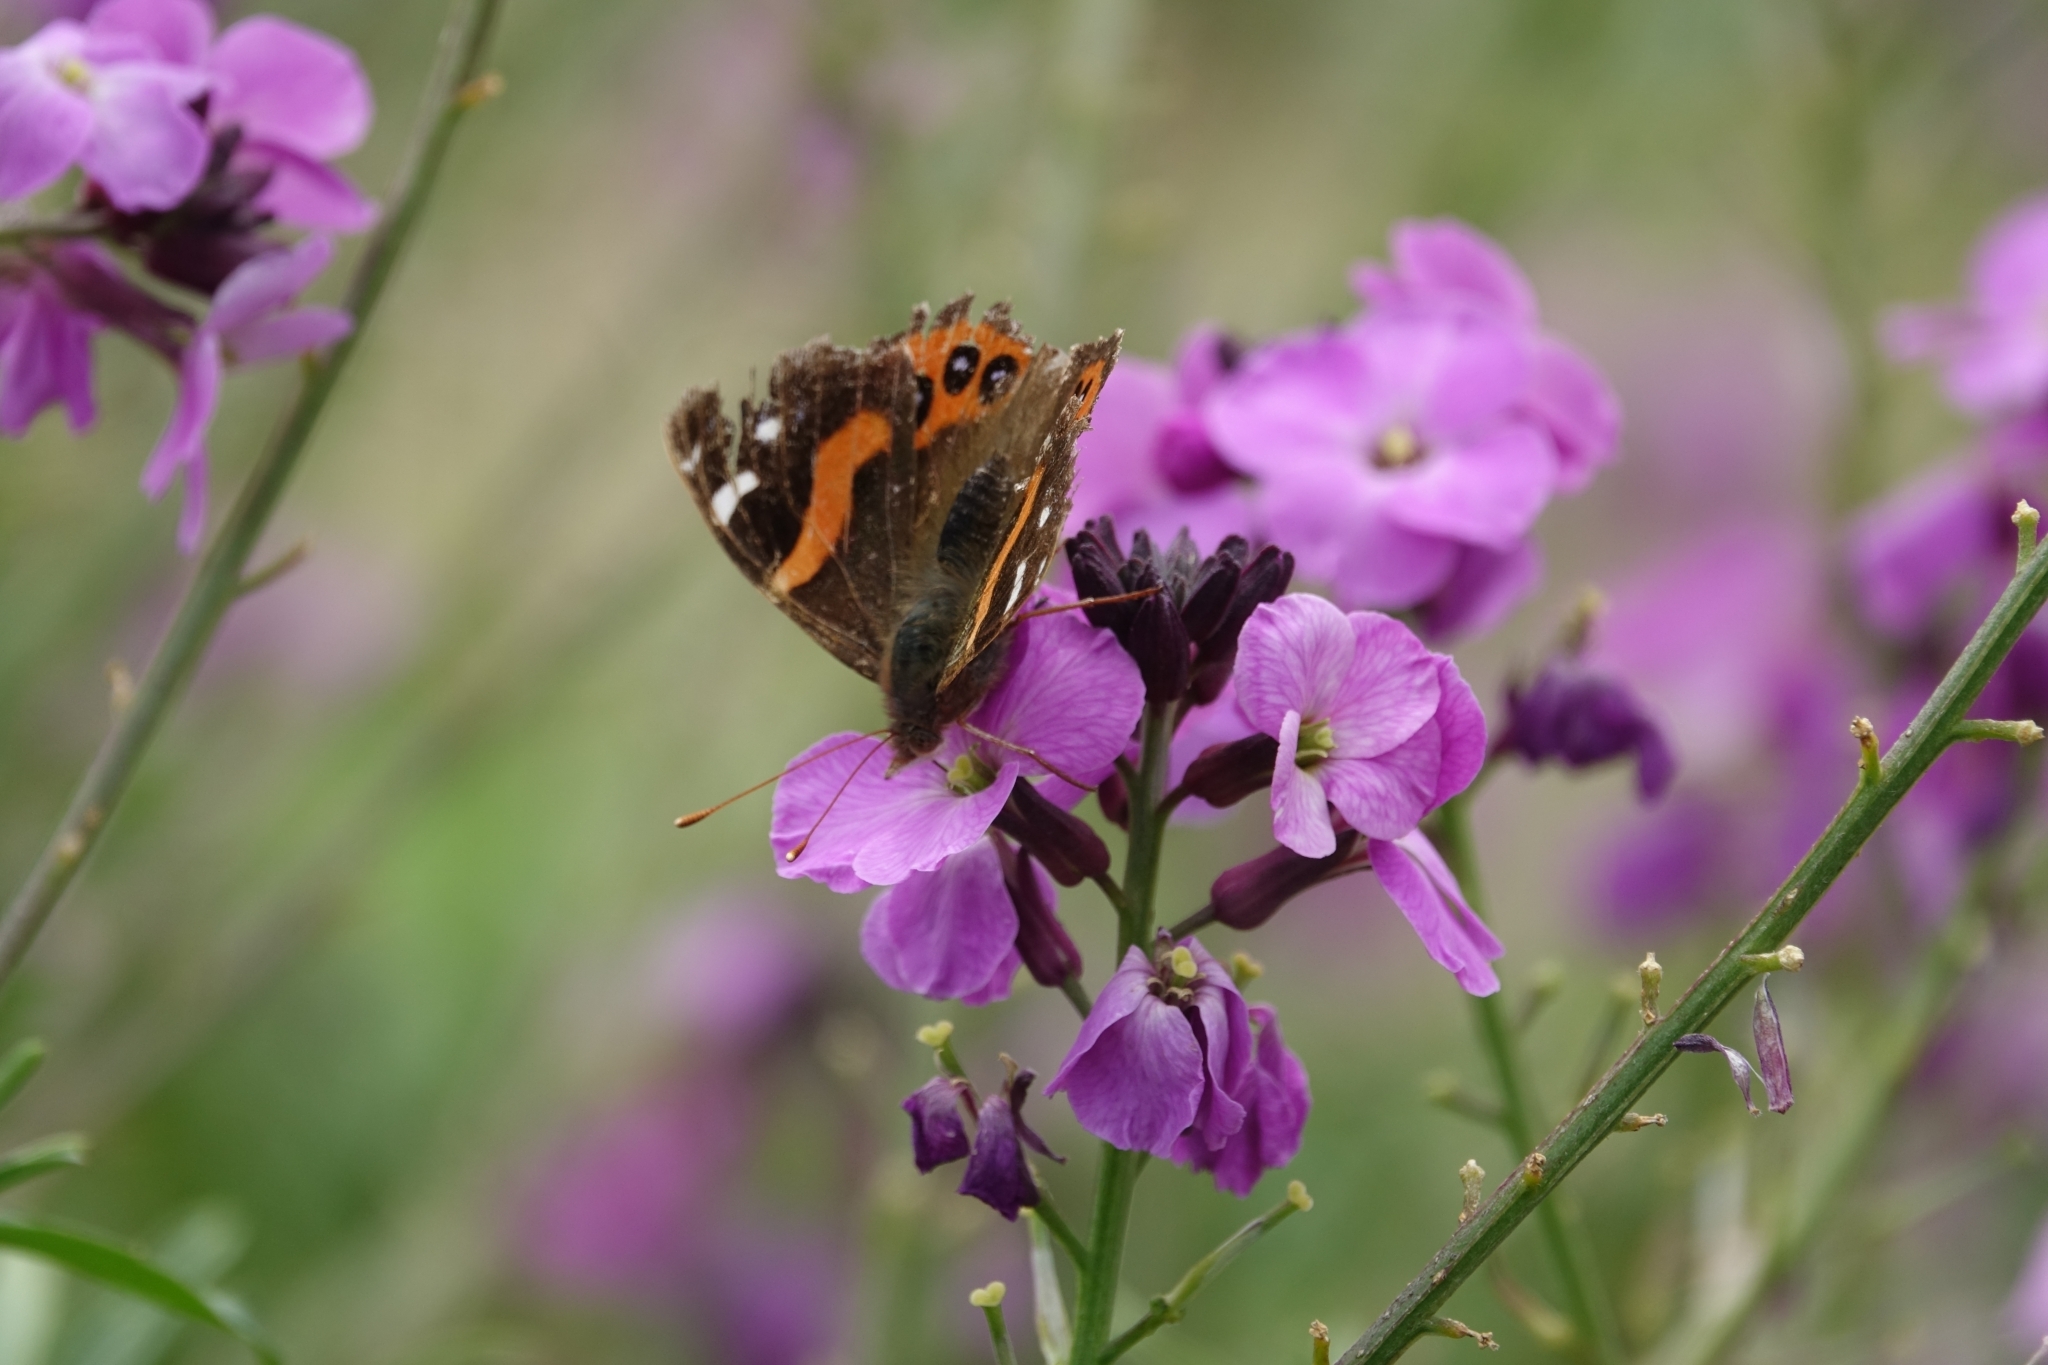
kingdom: Animalia
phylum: Arthropoda
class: Insecta
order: Lepidoptera
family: Nymphalidae
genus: Vanessa
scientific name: Vanessa gonerilla
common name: New zealand red admiral
